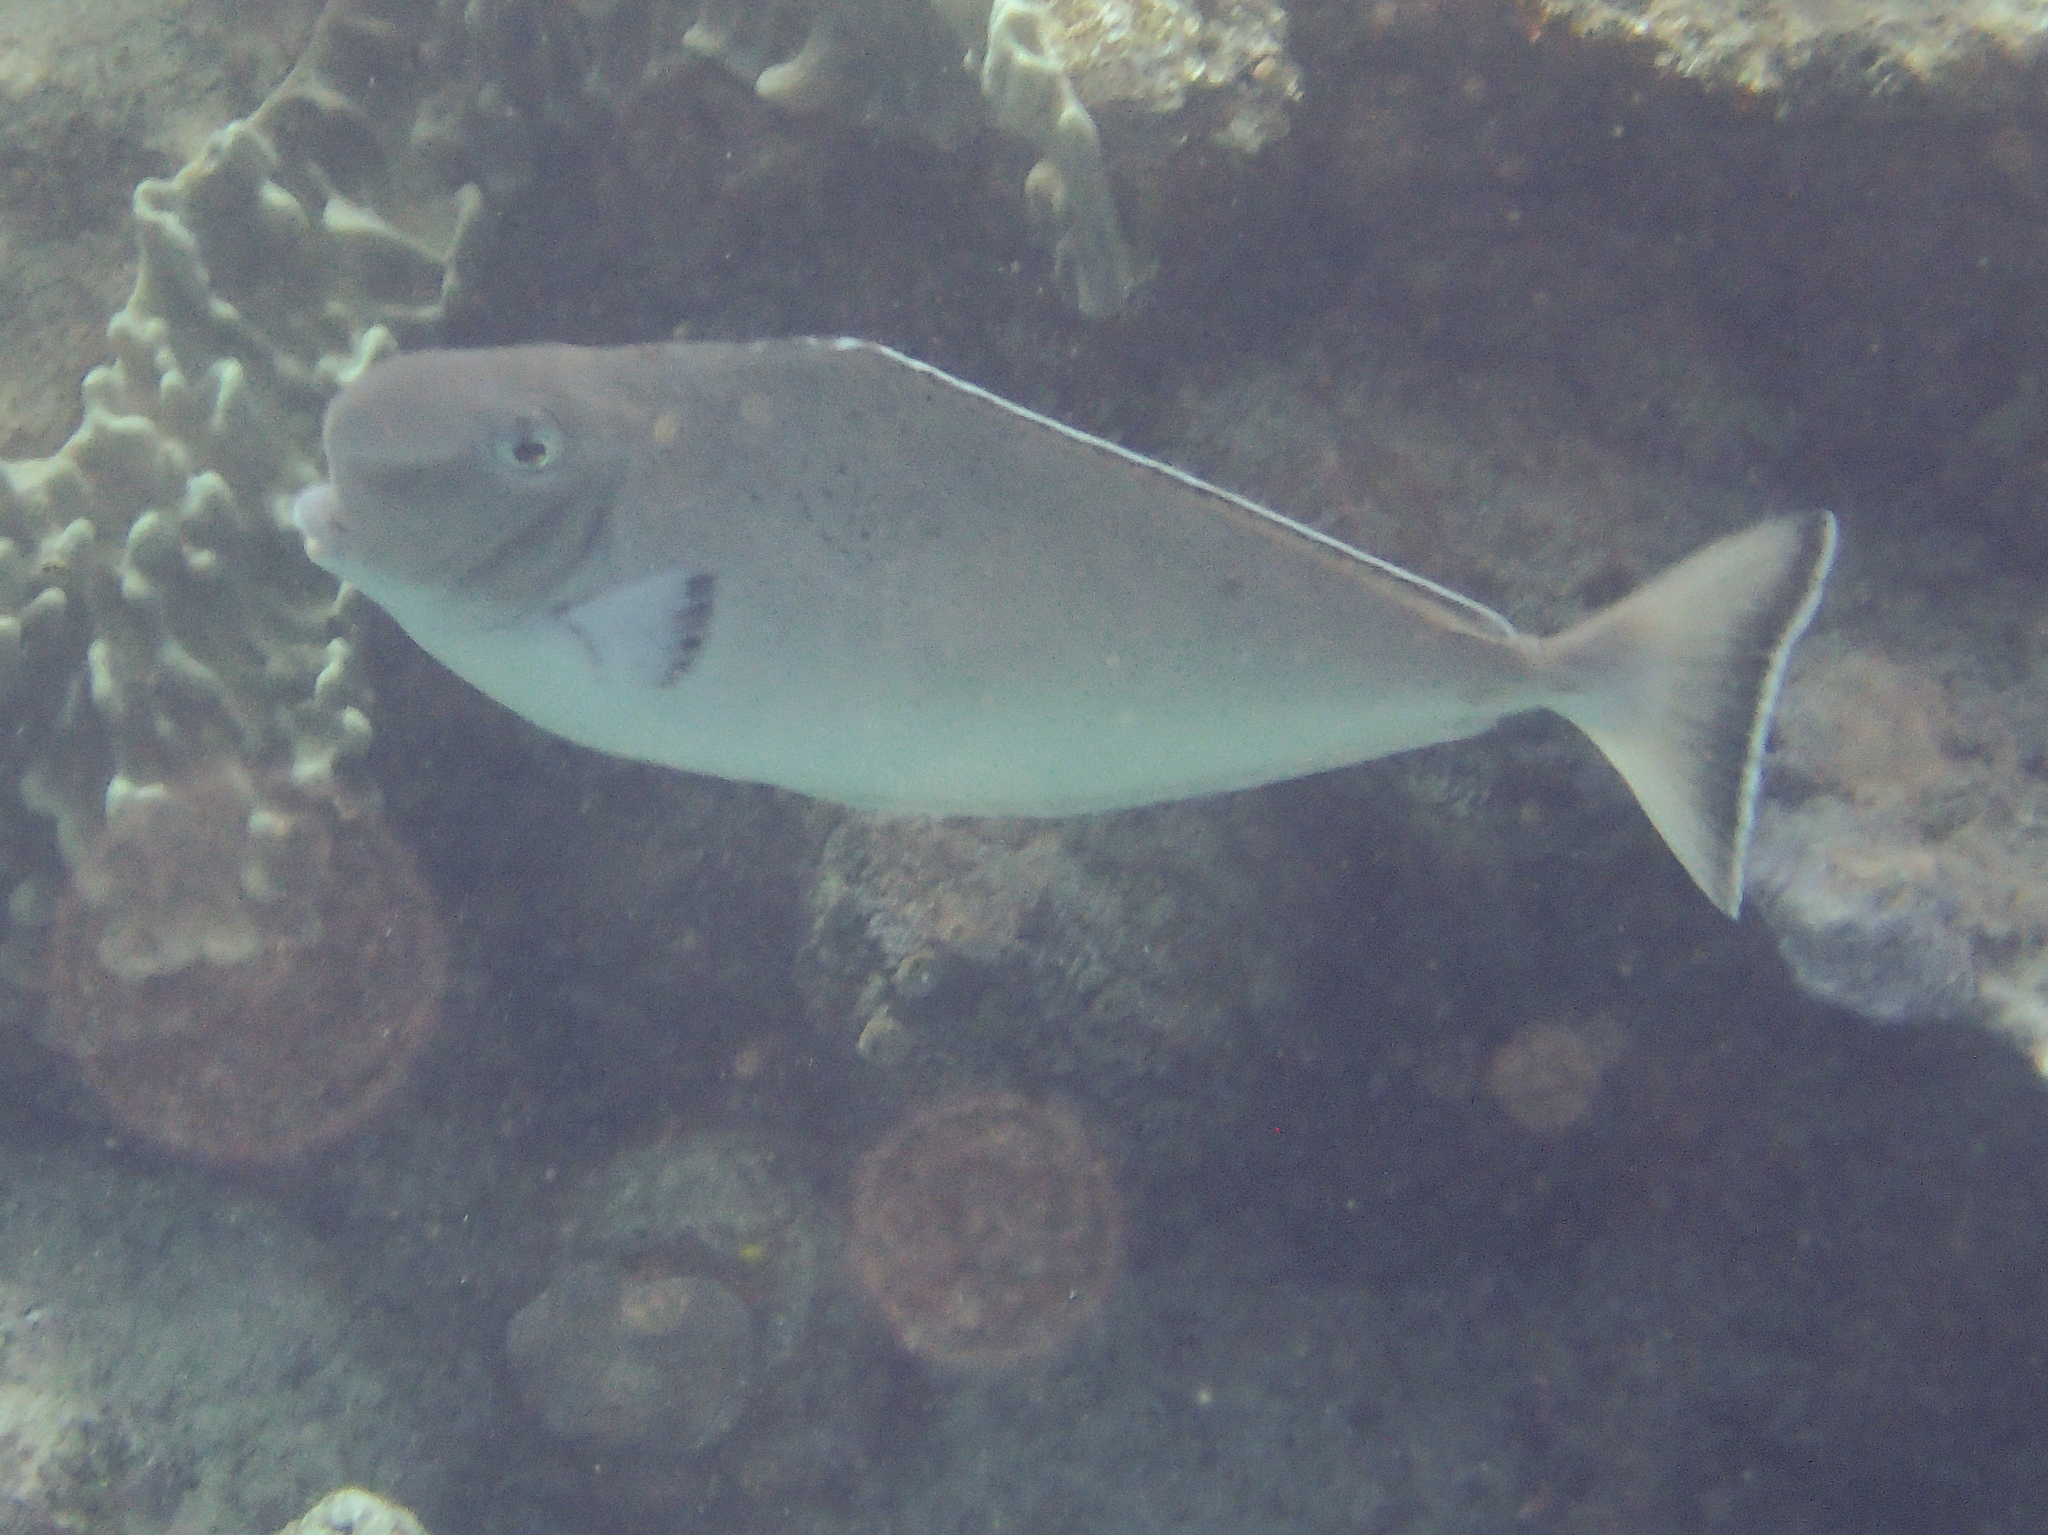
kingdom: Animalia
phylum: Chordata
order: Perciformes
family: Acanthuridae
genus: Naso
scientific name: Naso tonganus
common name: Humpnose unicornfish
